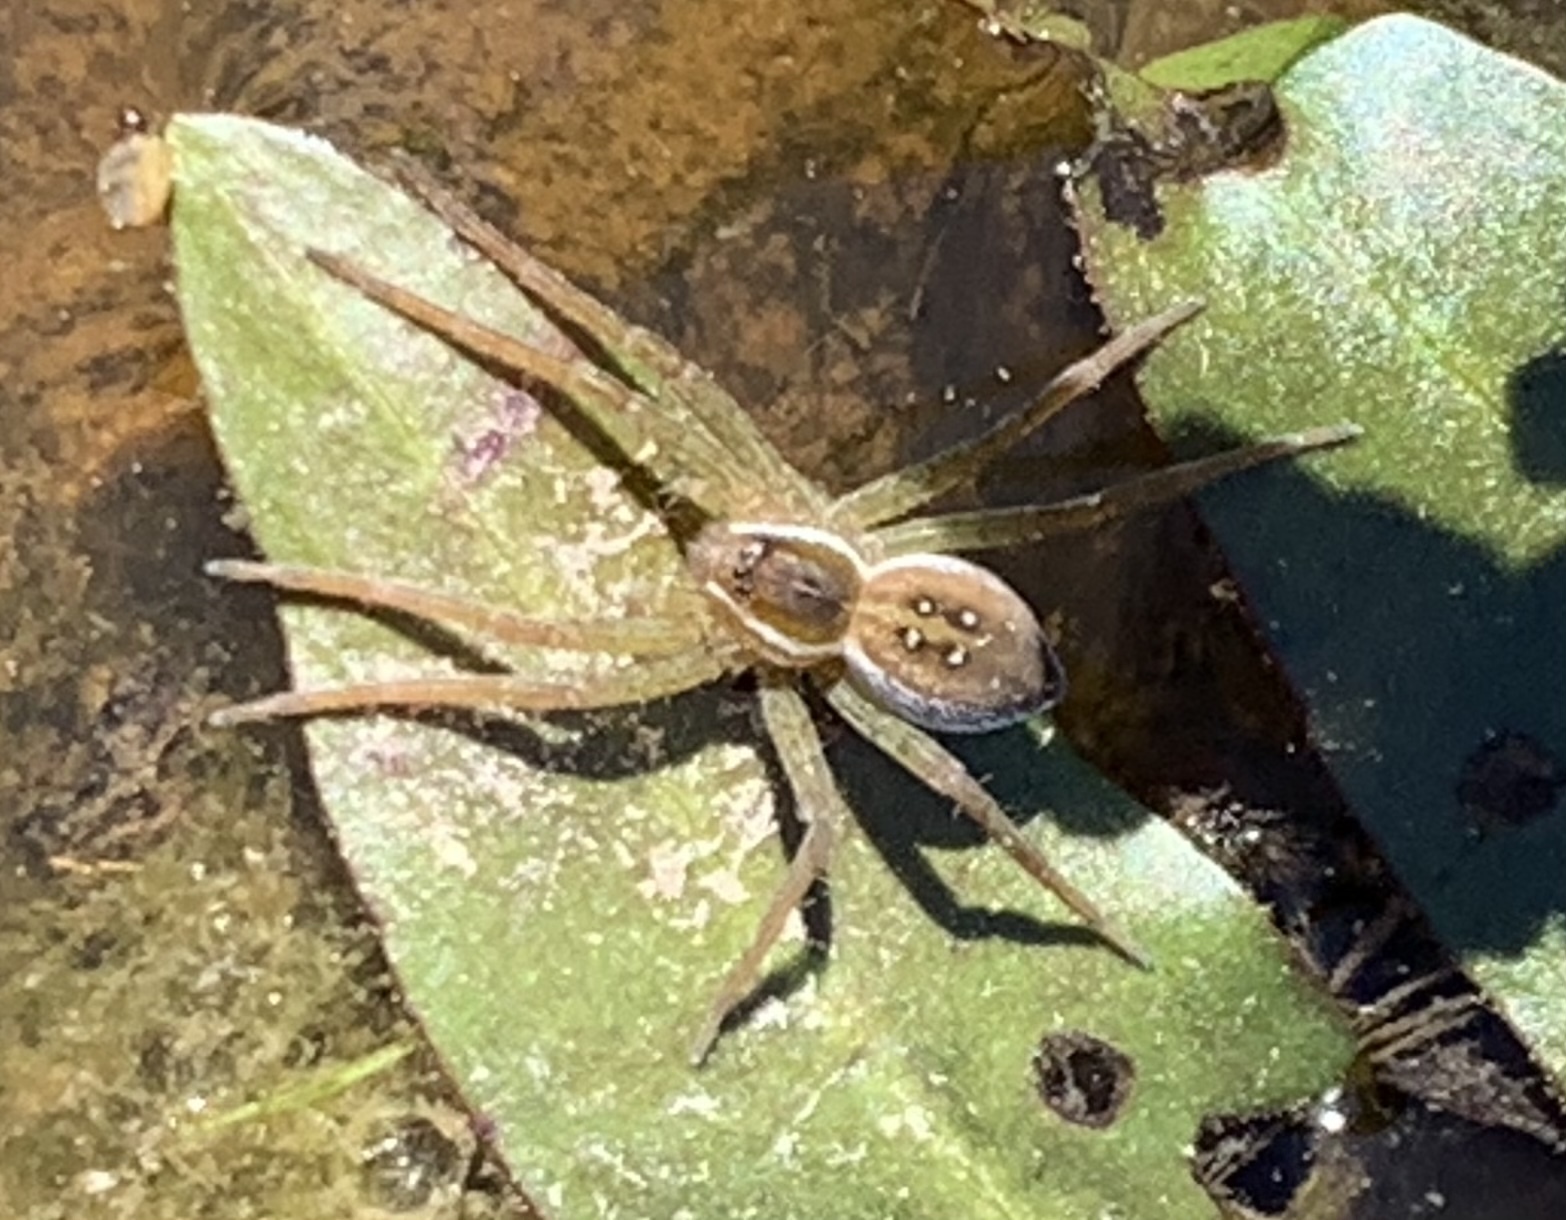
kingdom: Animalia
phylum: Arthropoda
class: Arachnida
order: Araneae
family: Pisauridae
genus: Dolomedes
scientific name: Dolomedes triton
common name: Six-spotted fishing spider
